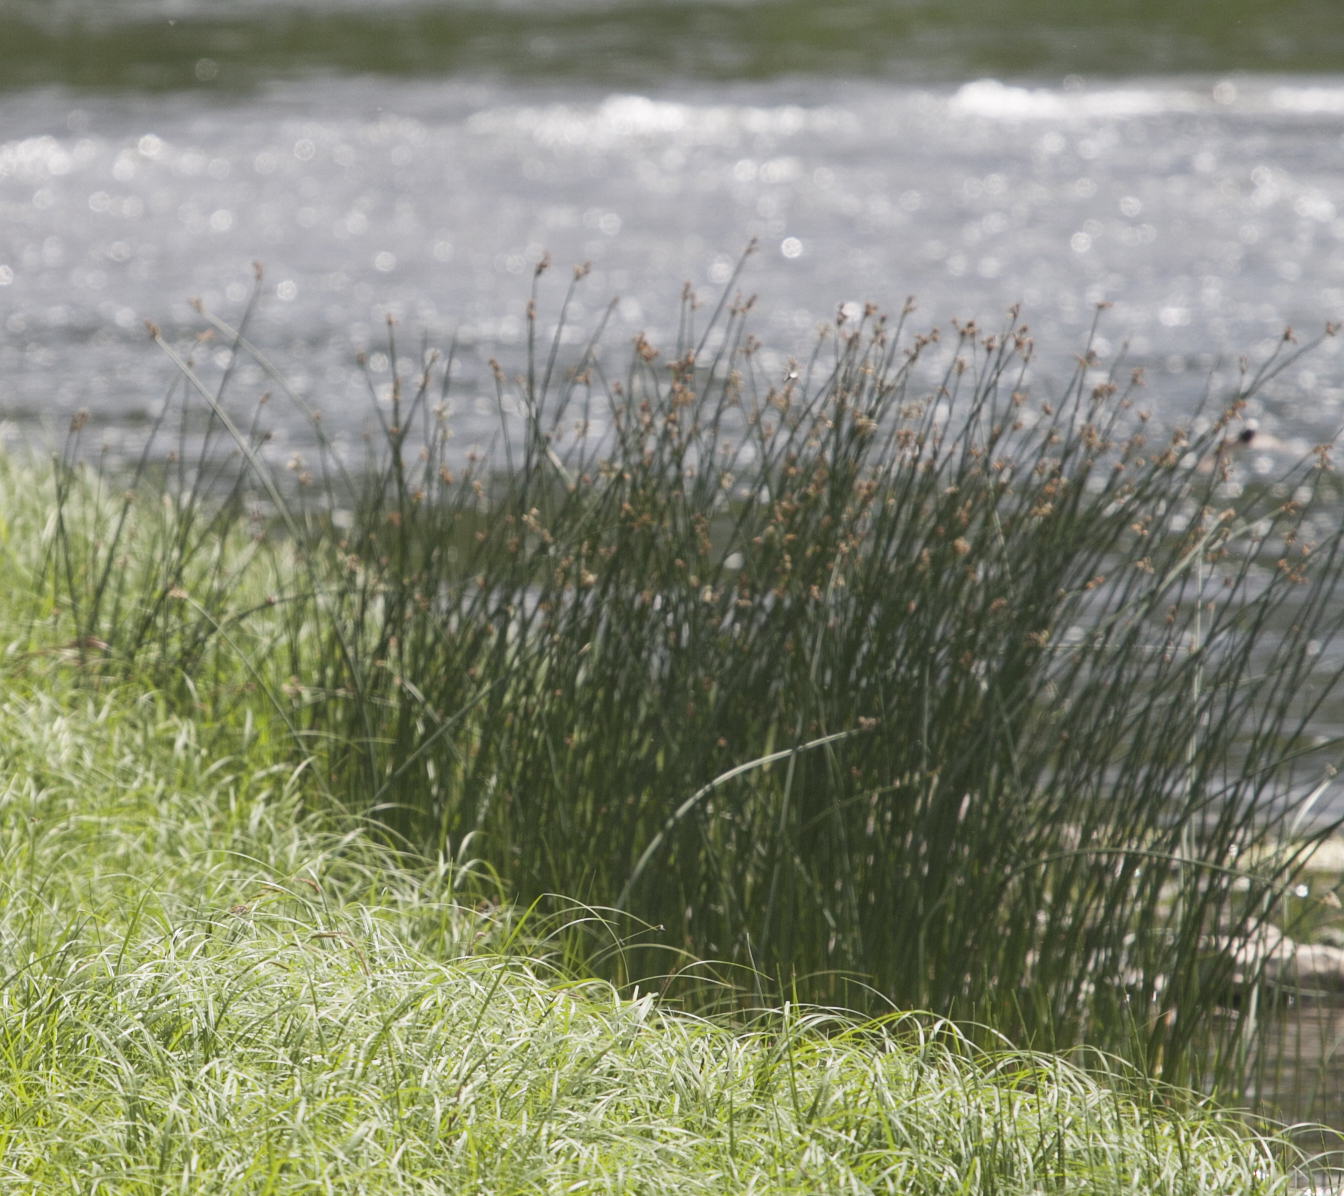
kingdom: Plantae
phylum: Tracheophyta
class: Liliopsida
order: Poales
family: Cyperaceae
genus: Schoenoplectus
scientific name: Schoenoplectus lacustris
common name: Common club-rush
